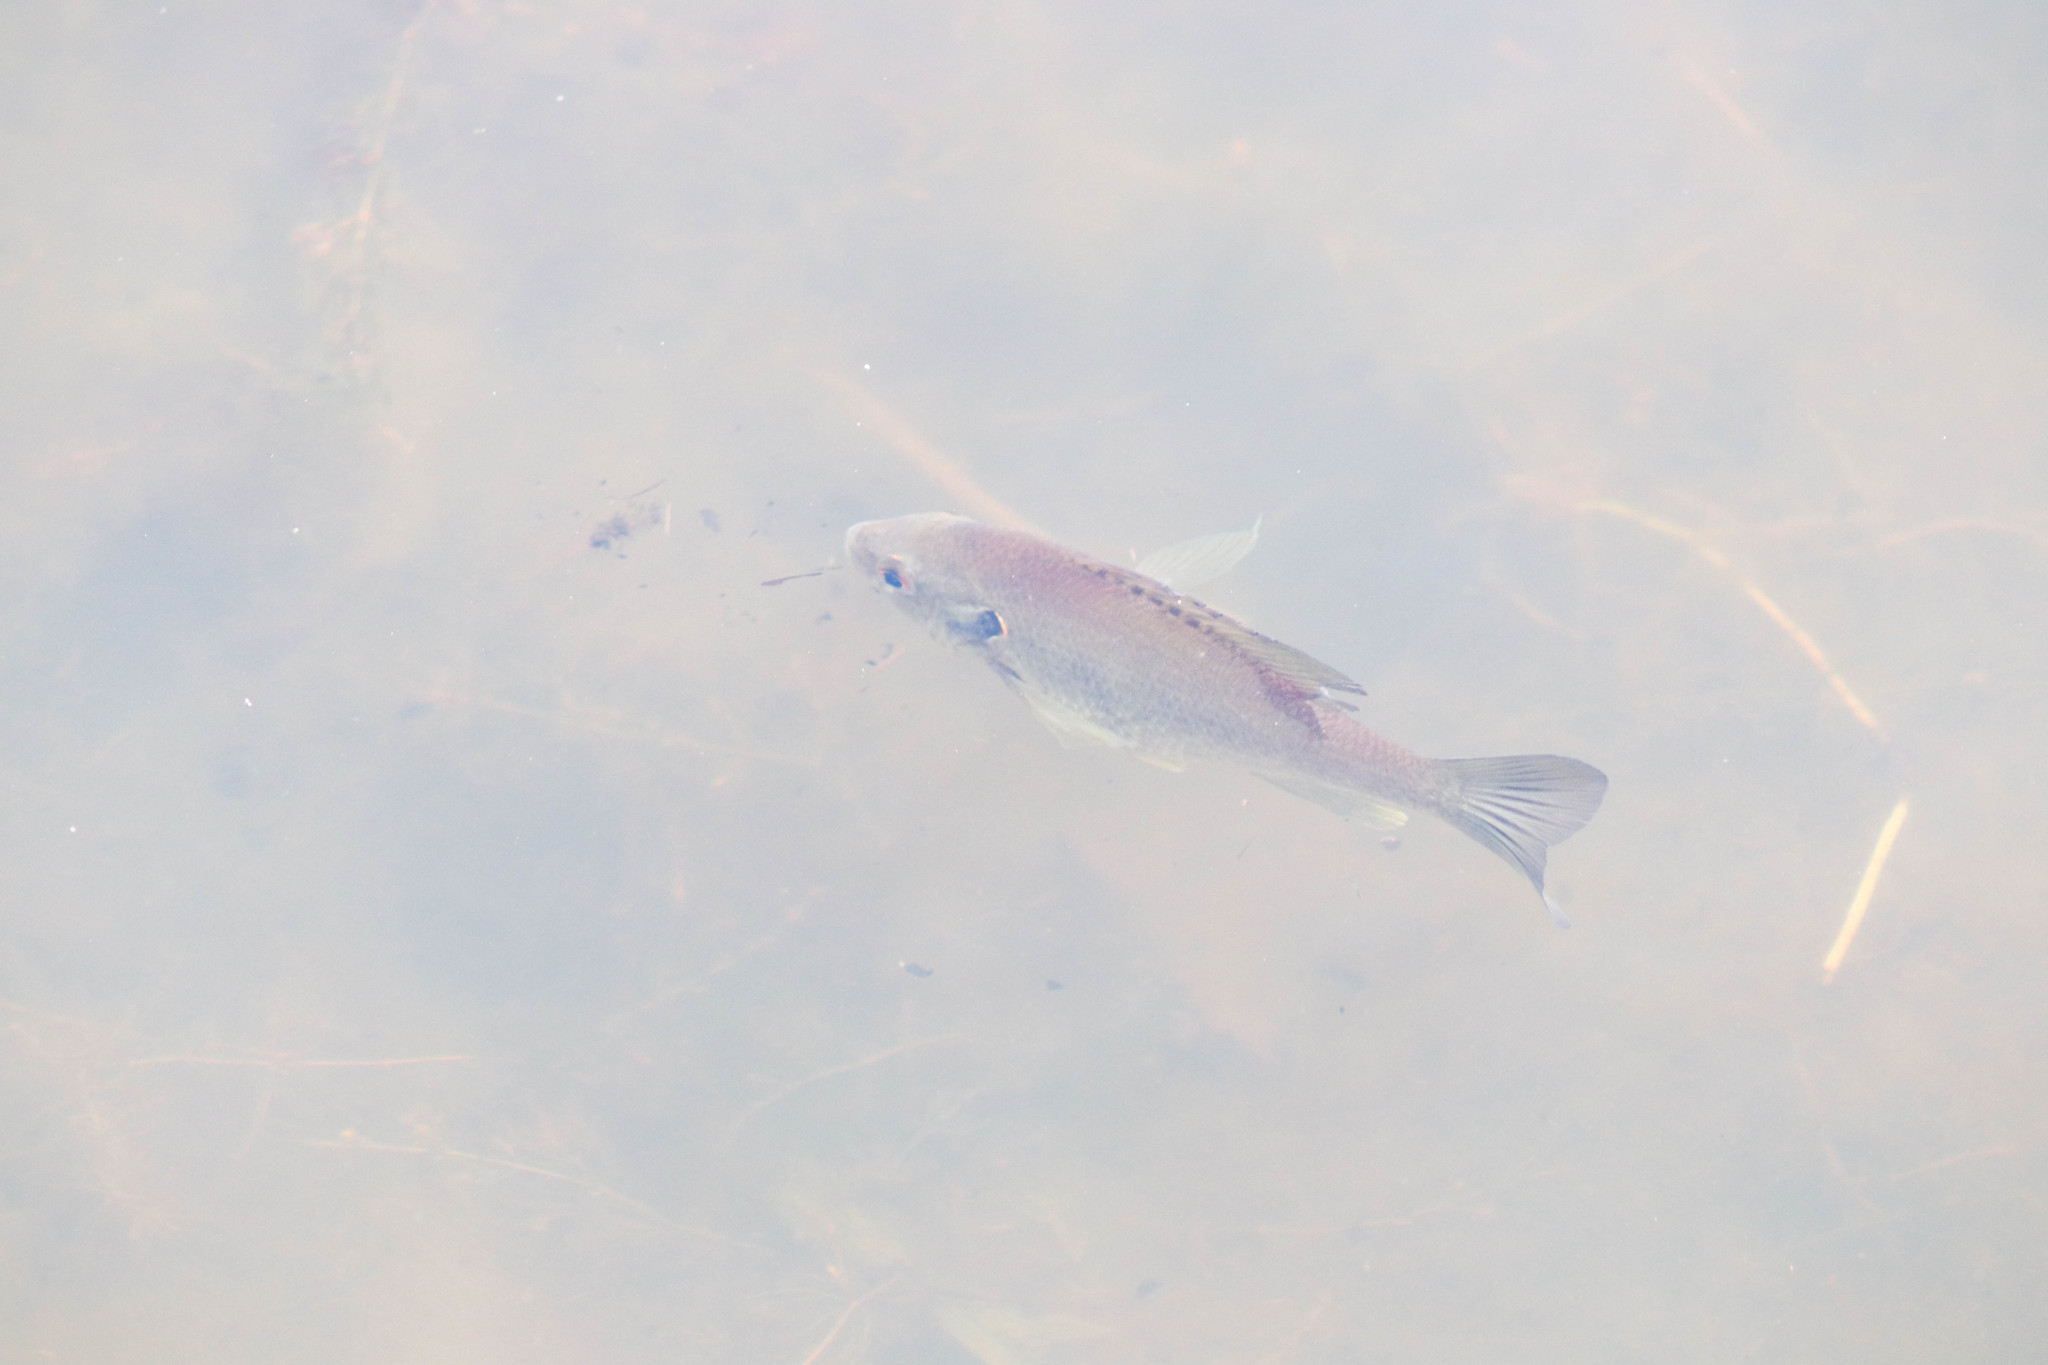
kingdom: Animalia
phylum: Chordata
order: Perciformes
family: Centrarchidae
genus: Lepomis
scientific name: Lepomis macrochirus
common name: Bluegill
